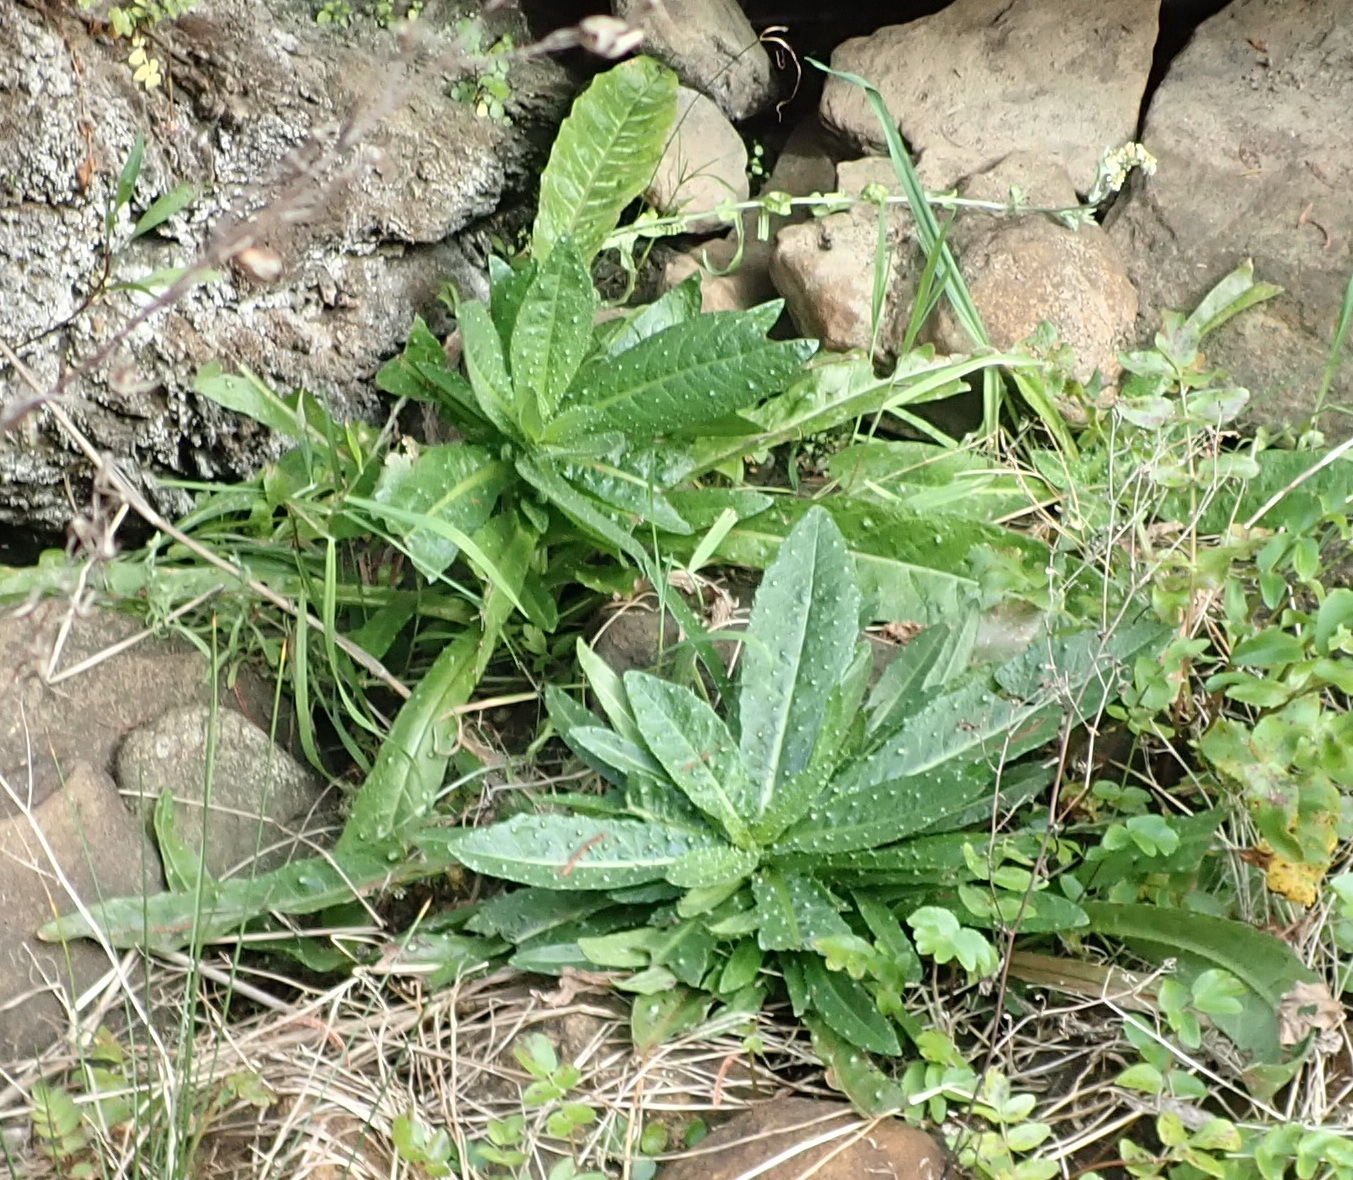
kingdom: Plantae
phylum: Tracheophyta
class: Magnoliopsida
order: Asterales
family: Asteraceae
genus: Helminthotheca
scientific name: Helminthotheca echioides
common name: Ox-tongue
